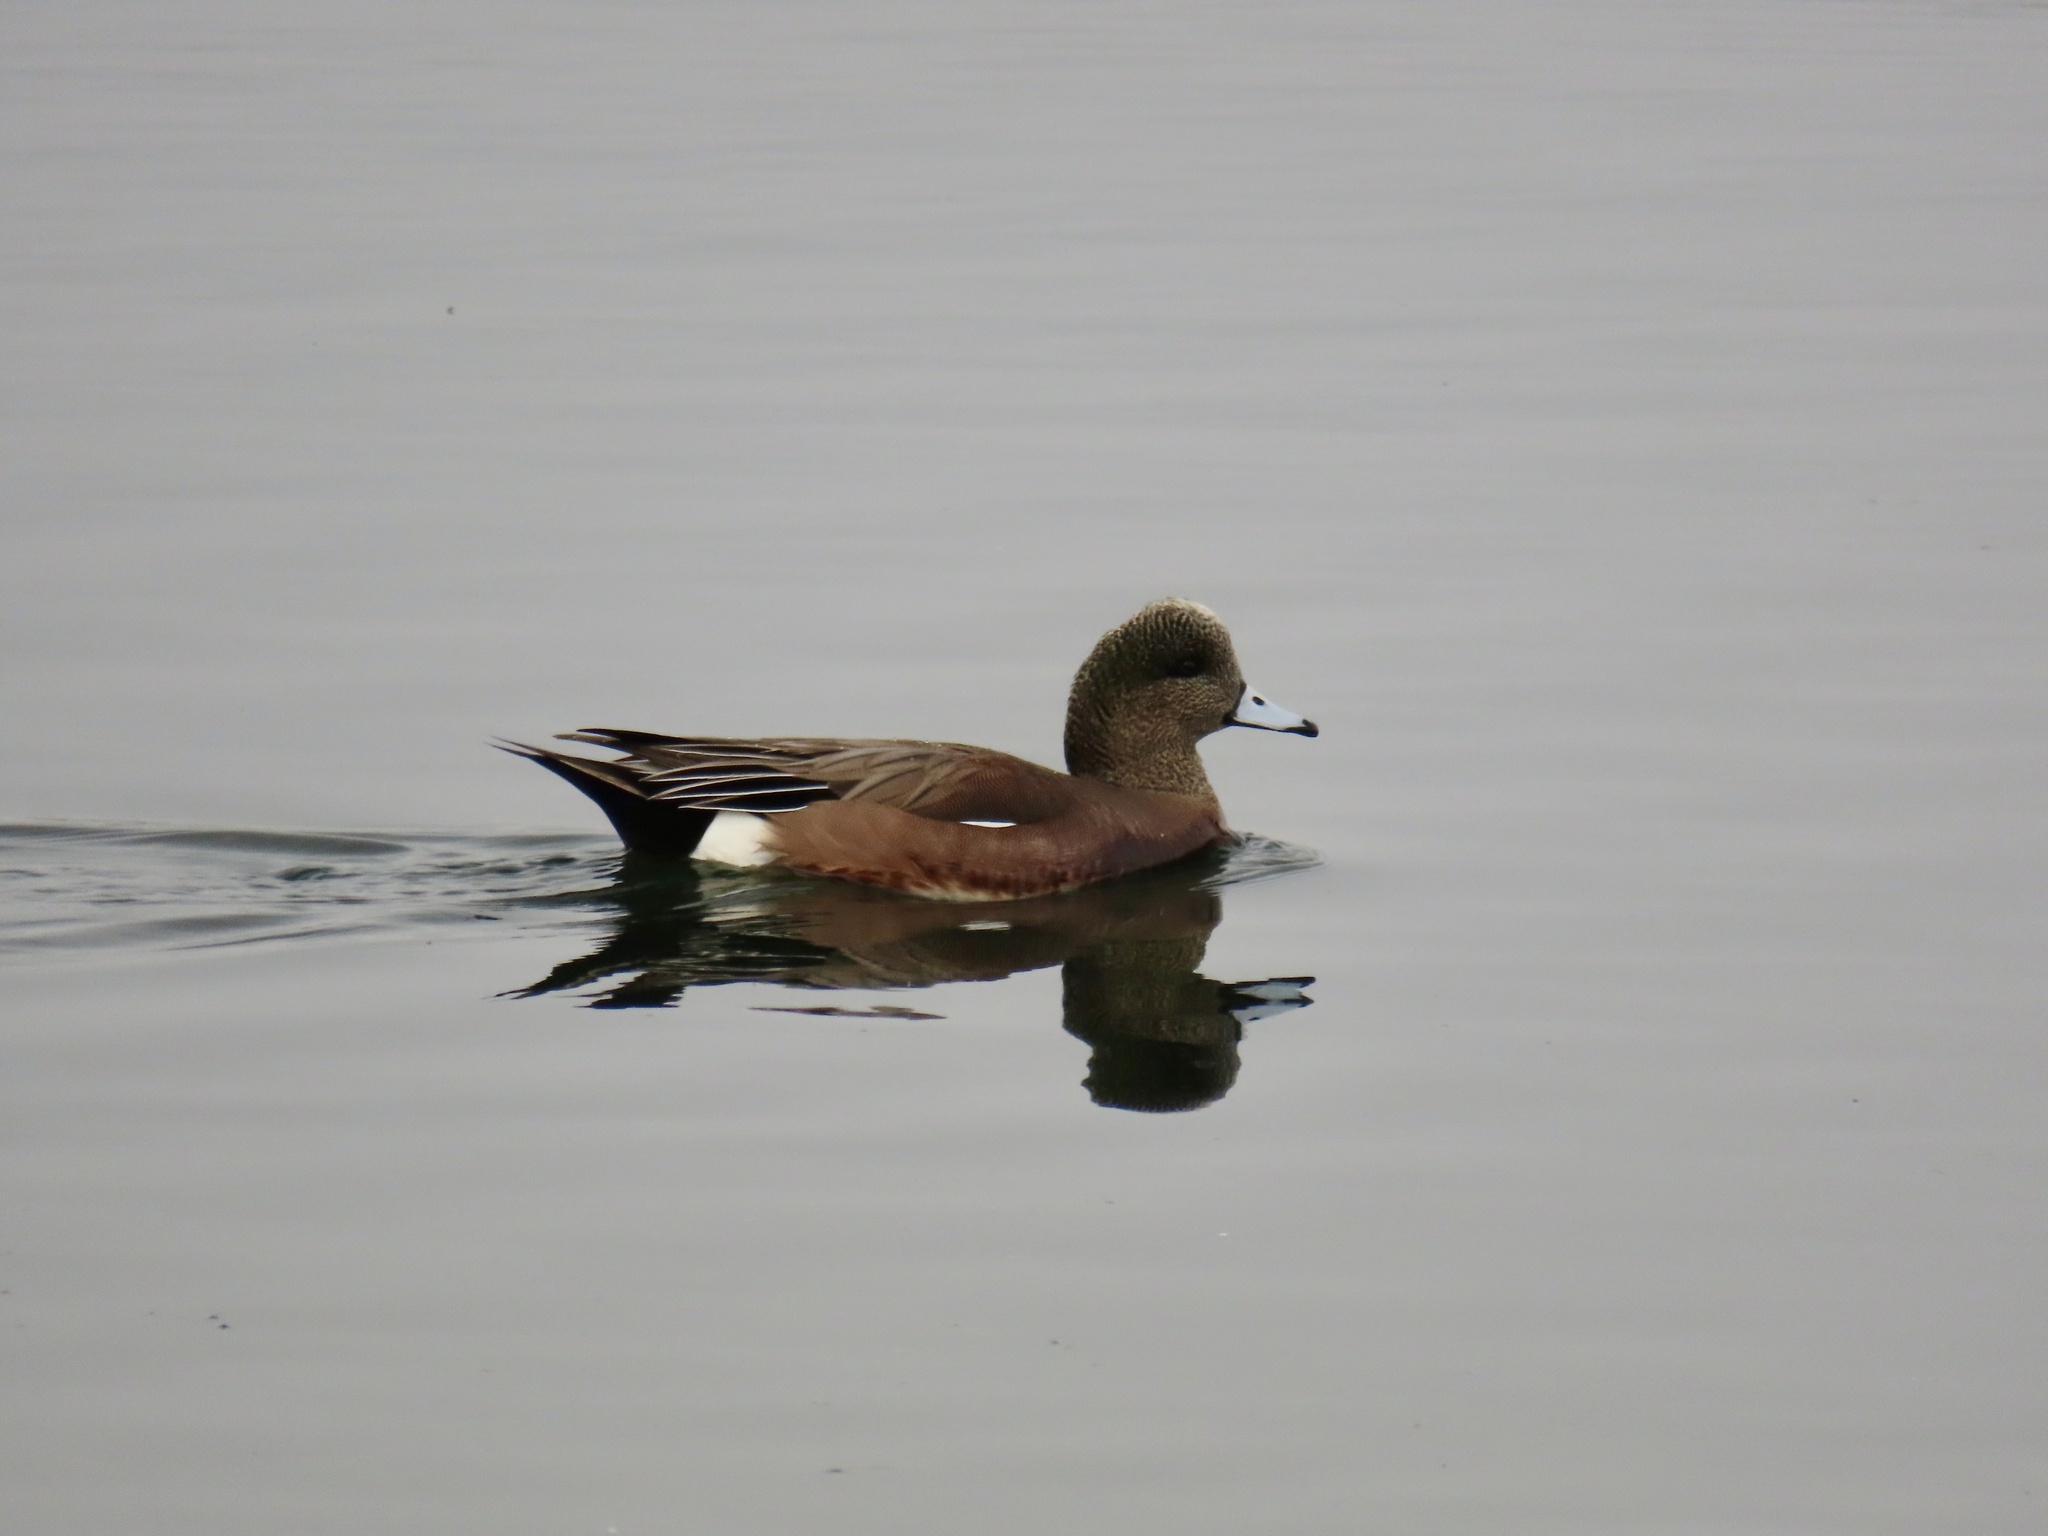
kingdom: Animalia
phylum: Chordata
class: Aves
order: Anseriformes
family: Anatidae
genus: Mareca
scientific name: Mareca americana
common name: American wigeon
